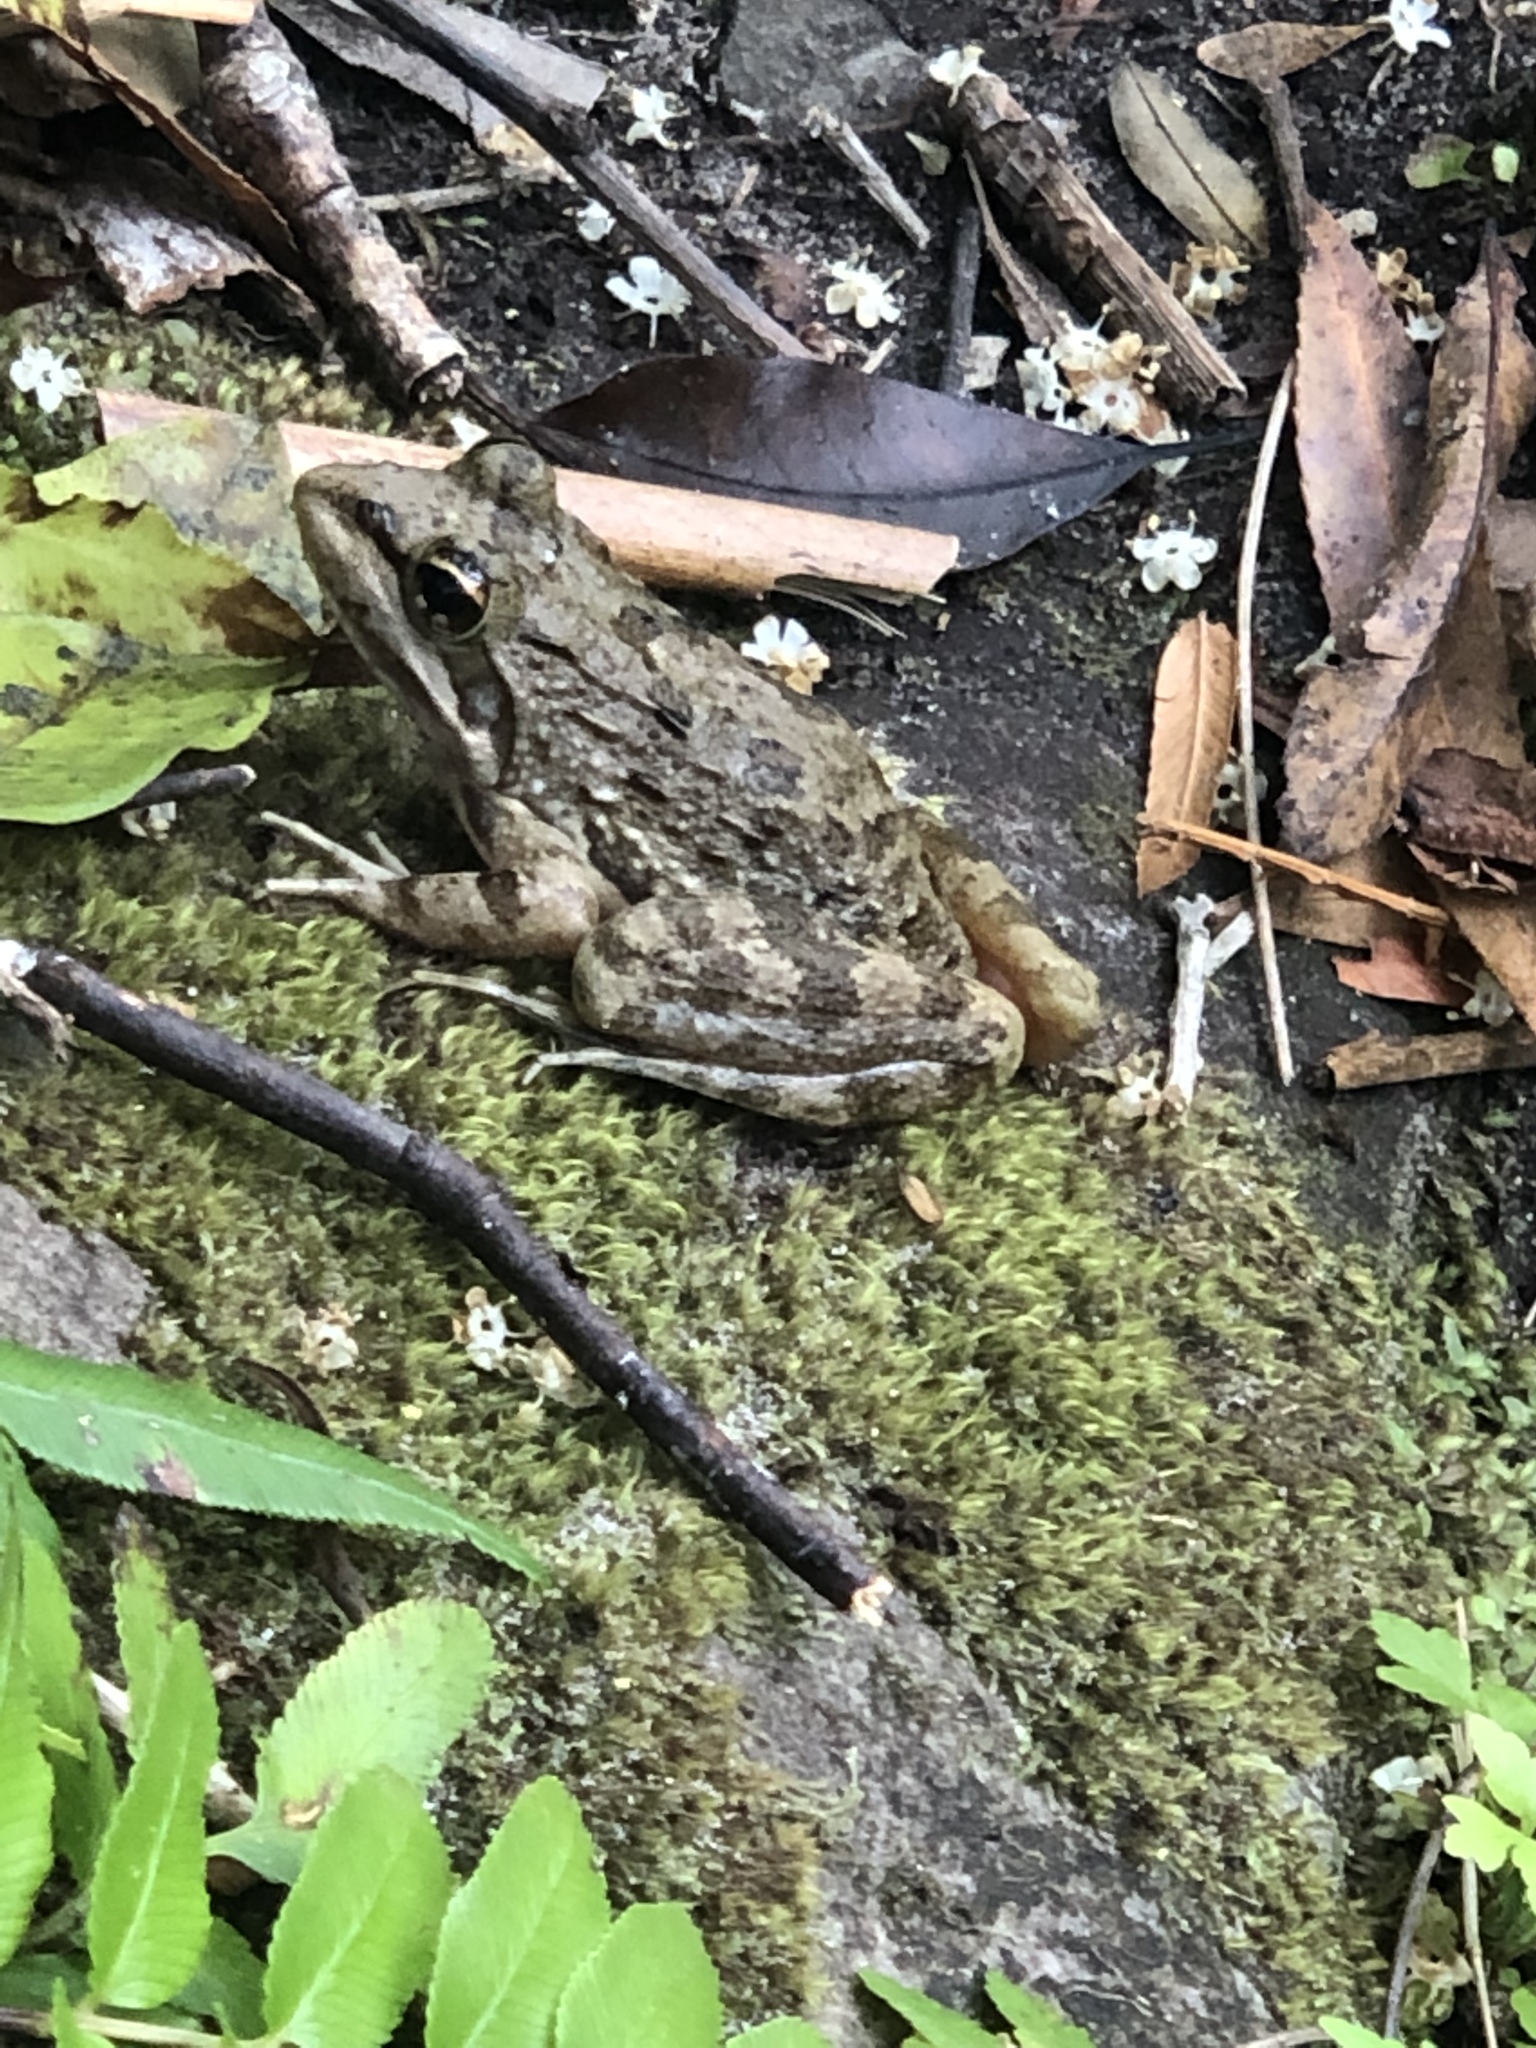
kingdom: Animalia
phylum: Chordata
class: Amphibia
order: Anura
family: Pyxicephalidae
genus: Amietia
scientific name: Amietia fuscigula
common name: Cape rana
